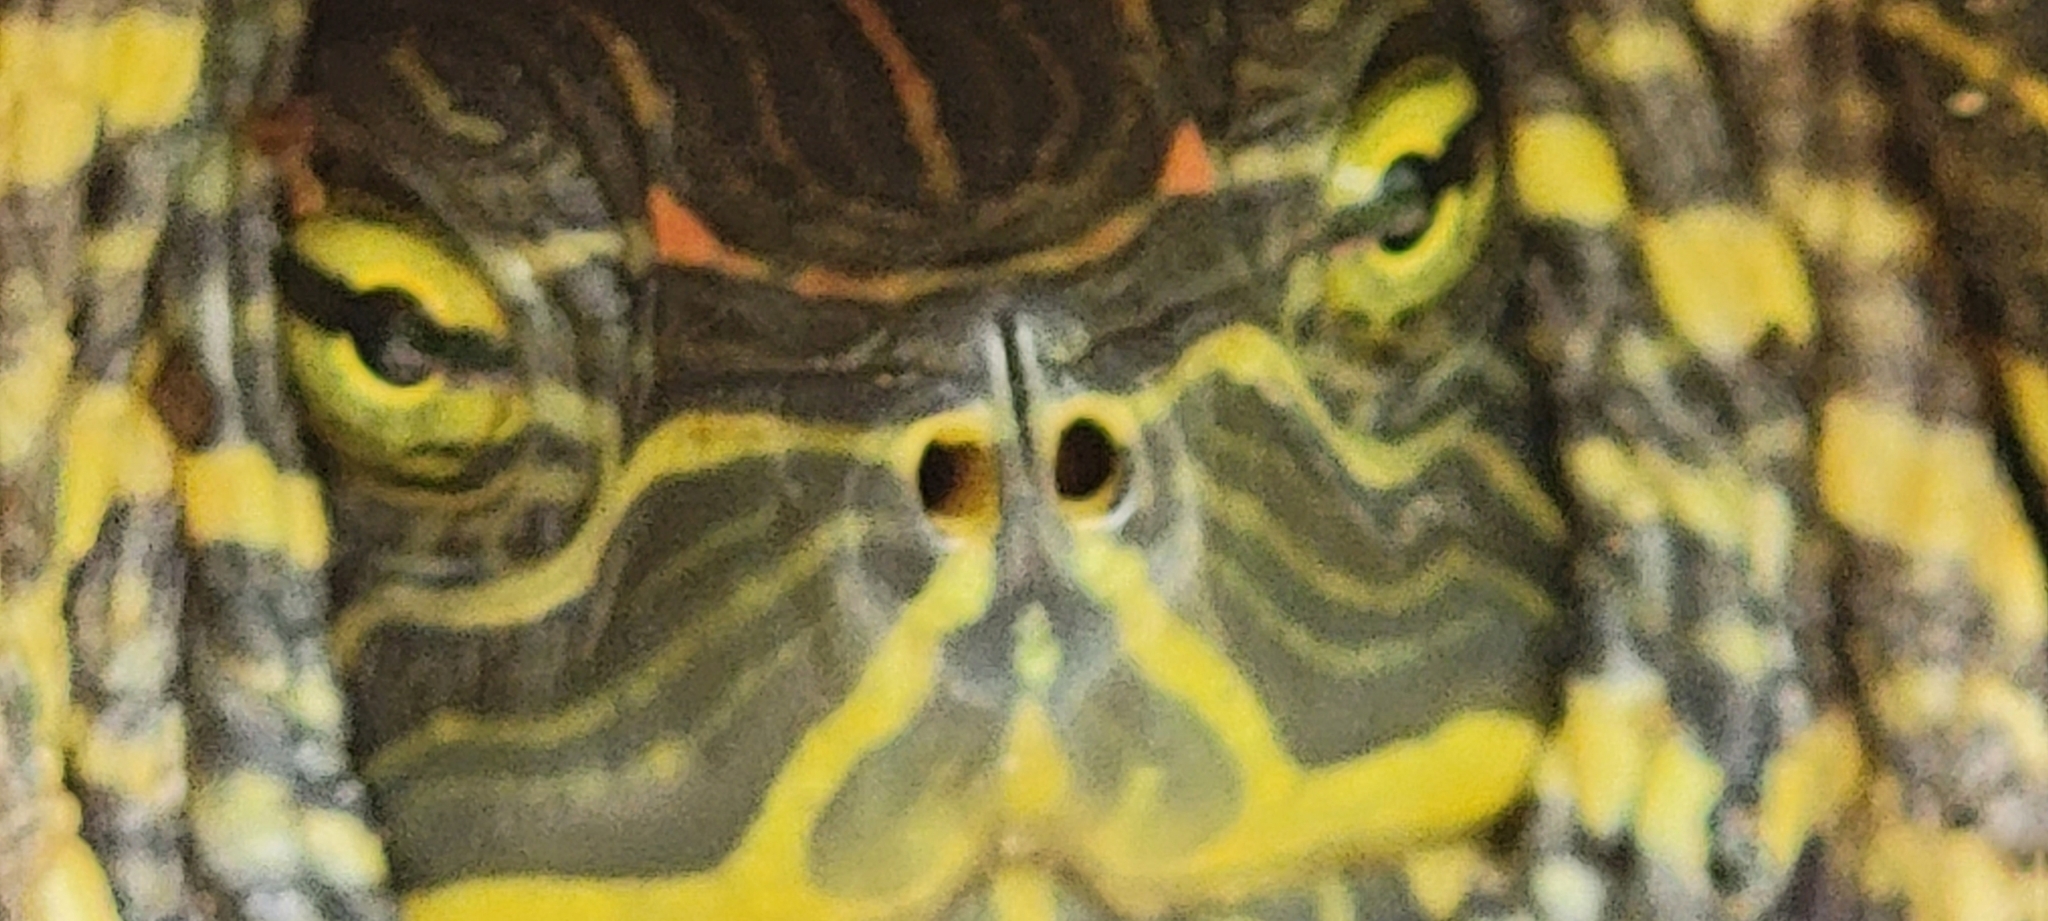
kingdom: Animalia
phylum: Chordata
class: Testudines
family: Emydidae
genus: Trachemys
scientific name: Trachemys scripta
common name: Slider
